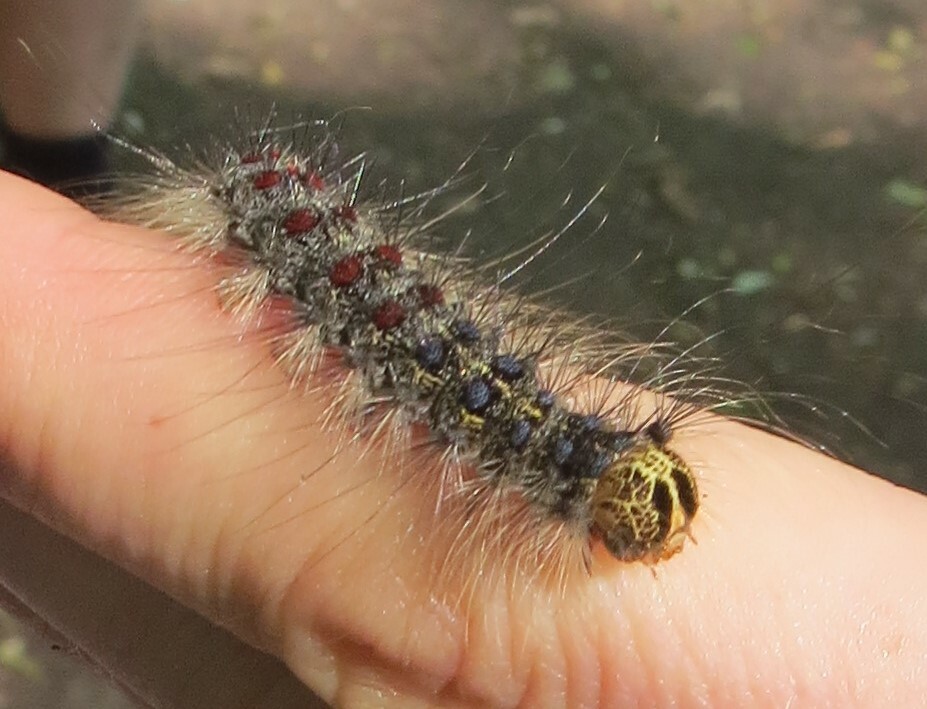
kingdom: Animalia
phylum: Arthropoda
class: Insecta
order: Lepidoptera
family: Erebidae
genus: Lymantria
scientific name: Lymantria dispar
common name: Gypsy moth
